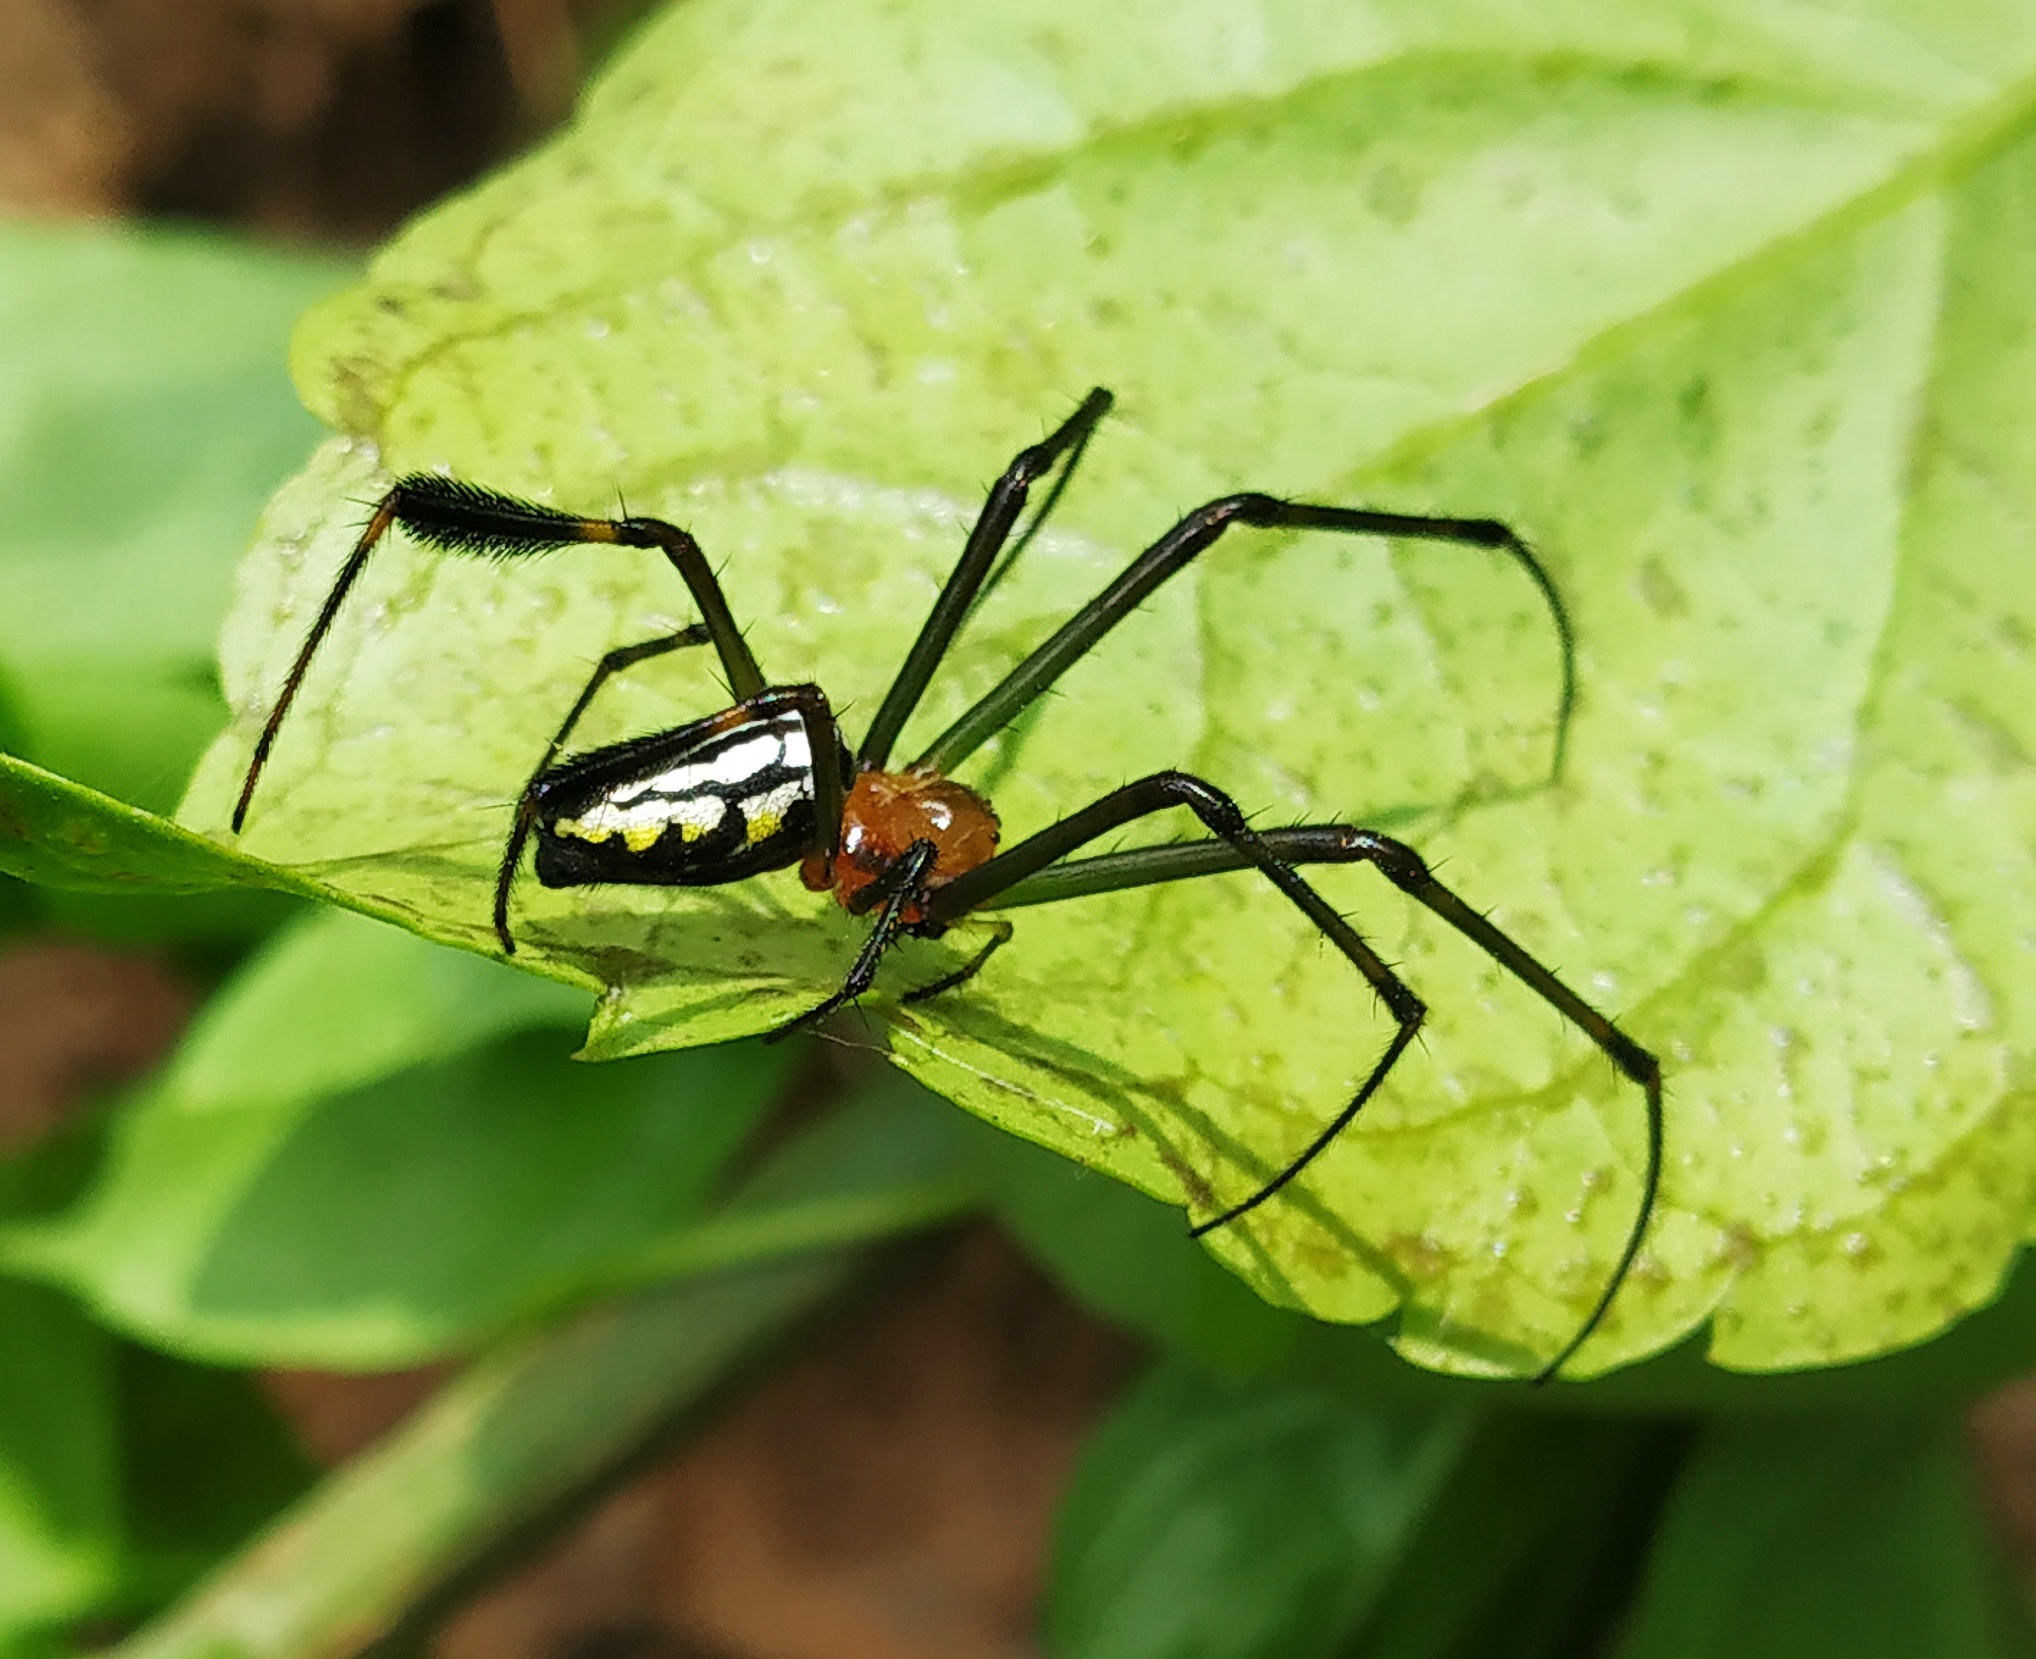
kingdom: Animalia
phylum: Arthropoda
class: Arachnida
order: Araneae
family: Tetragnathidae
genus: Leucauge
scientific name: Leucauge tessellata
